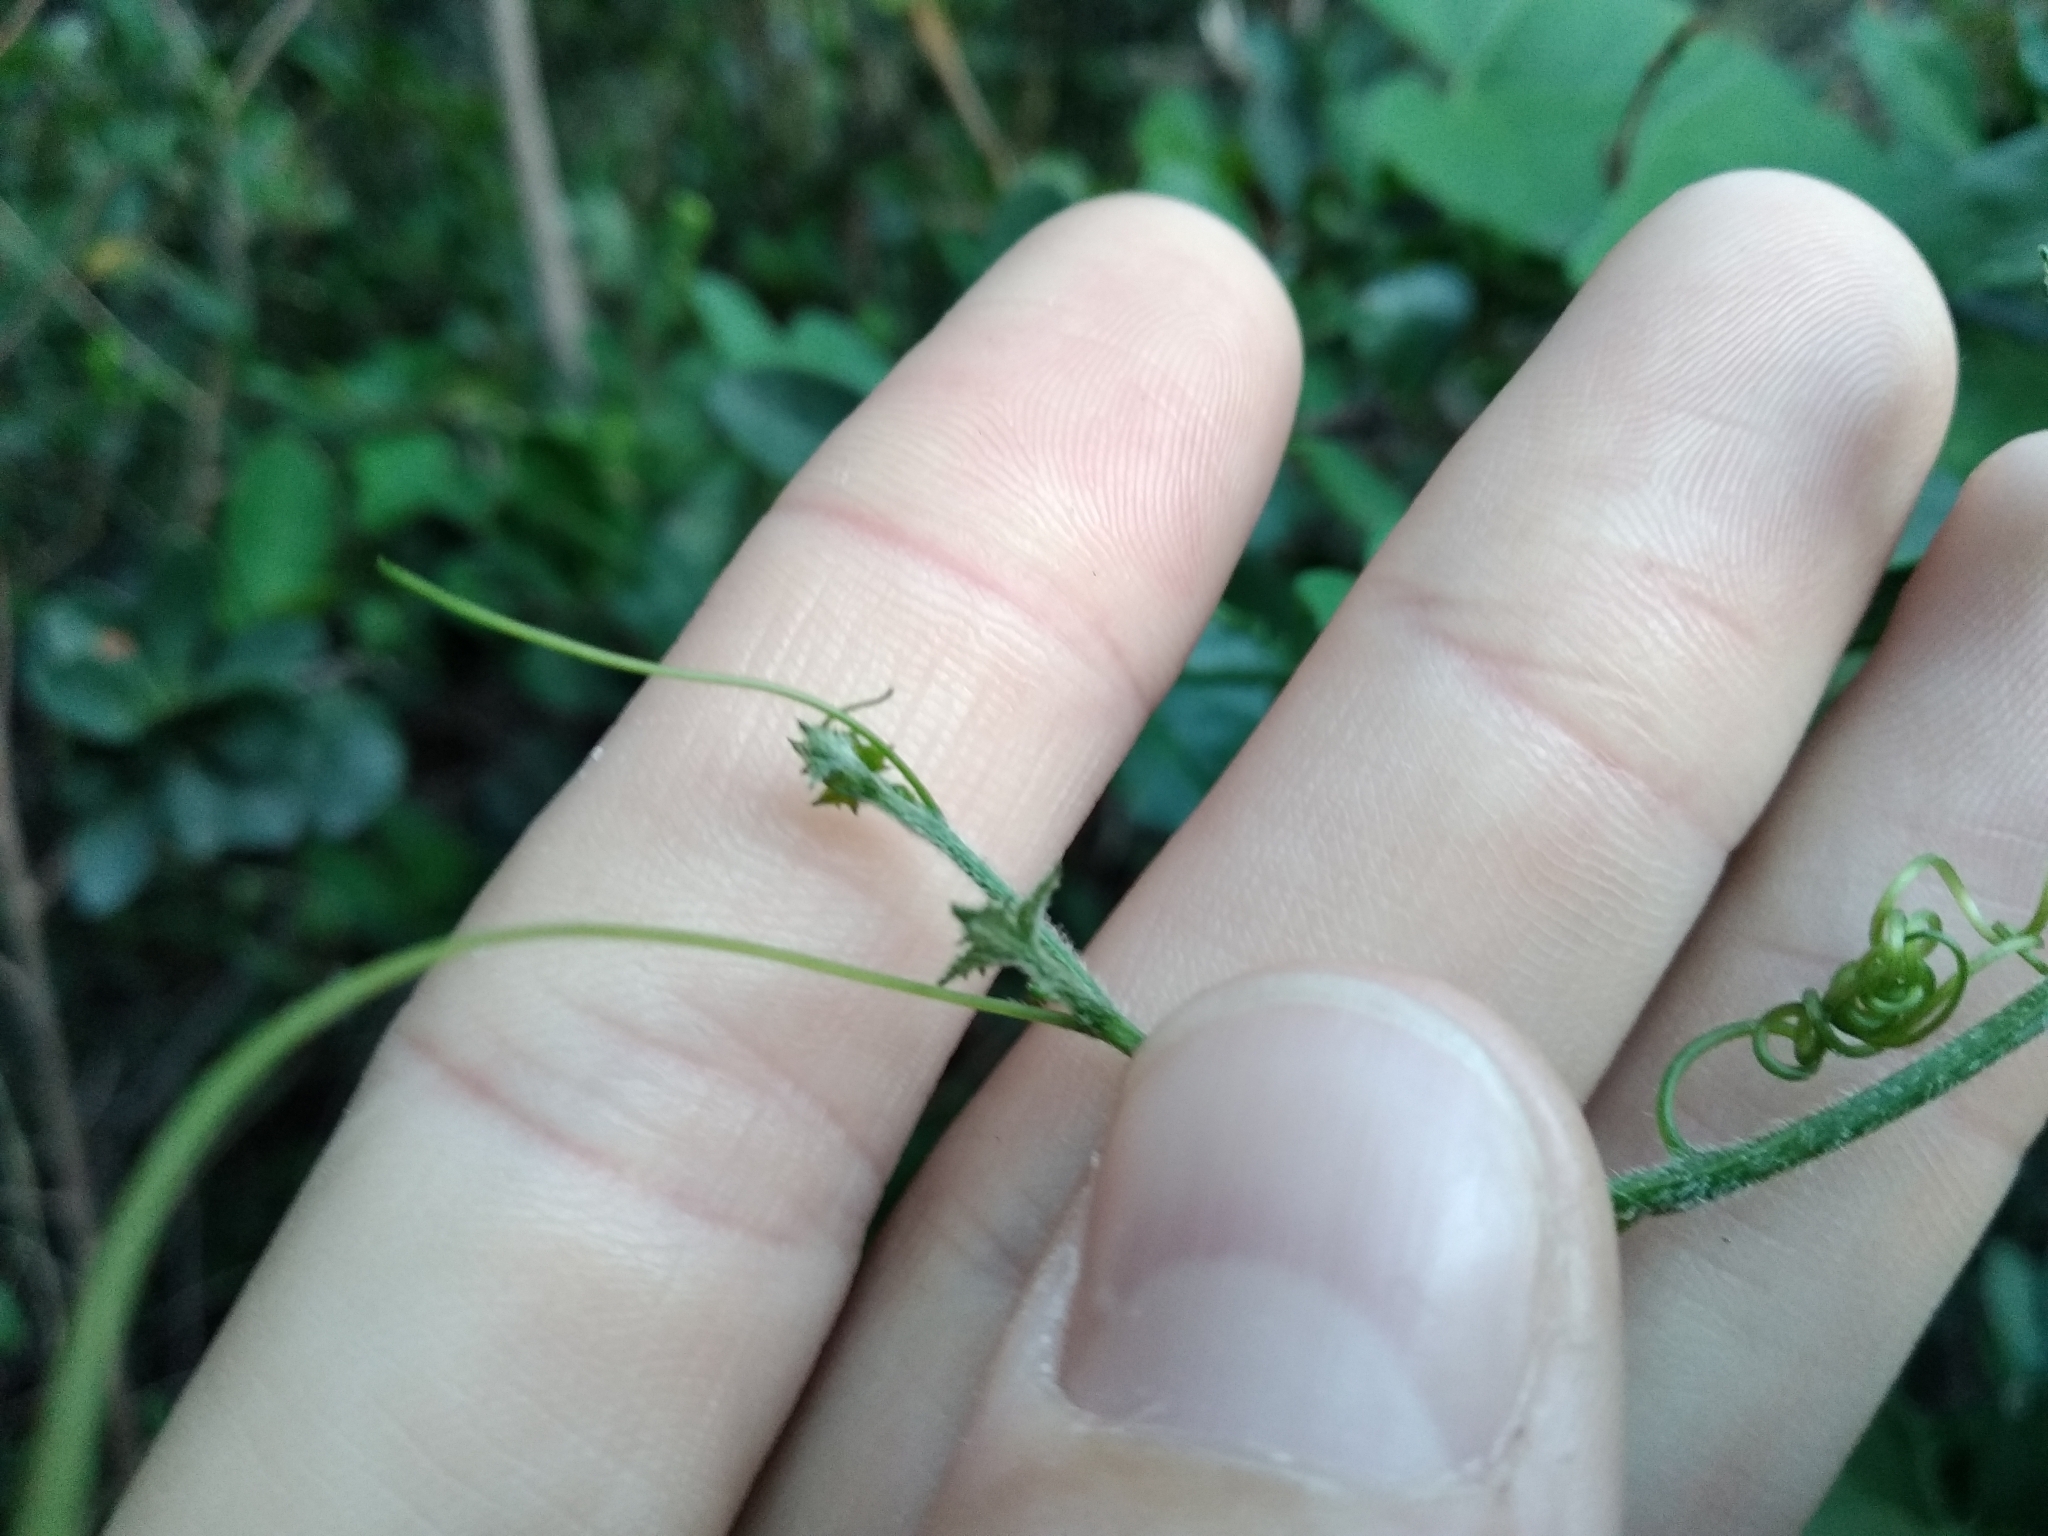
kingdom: Plantae
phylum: Tracheophyta
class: Magnoliopsida
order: Cucurbitales
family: Cucurbitaceae
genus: Kedrostis
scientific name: Kedrostis nana
